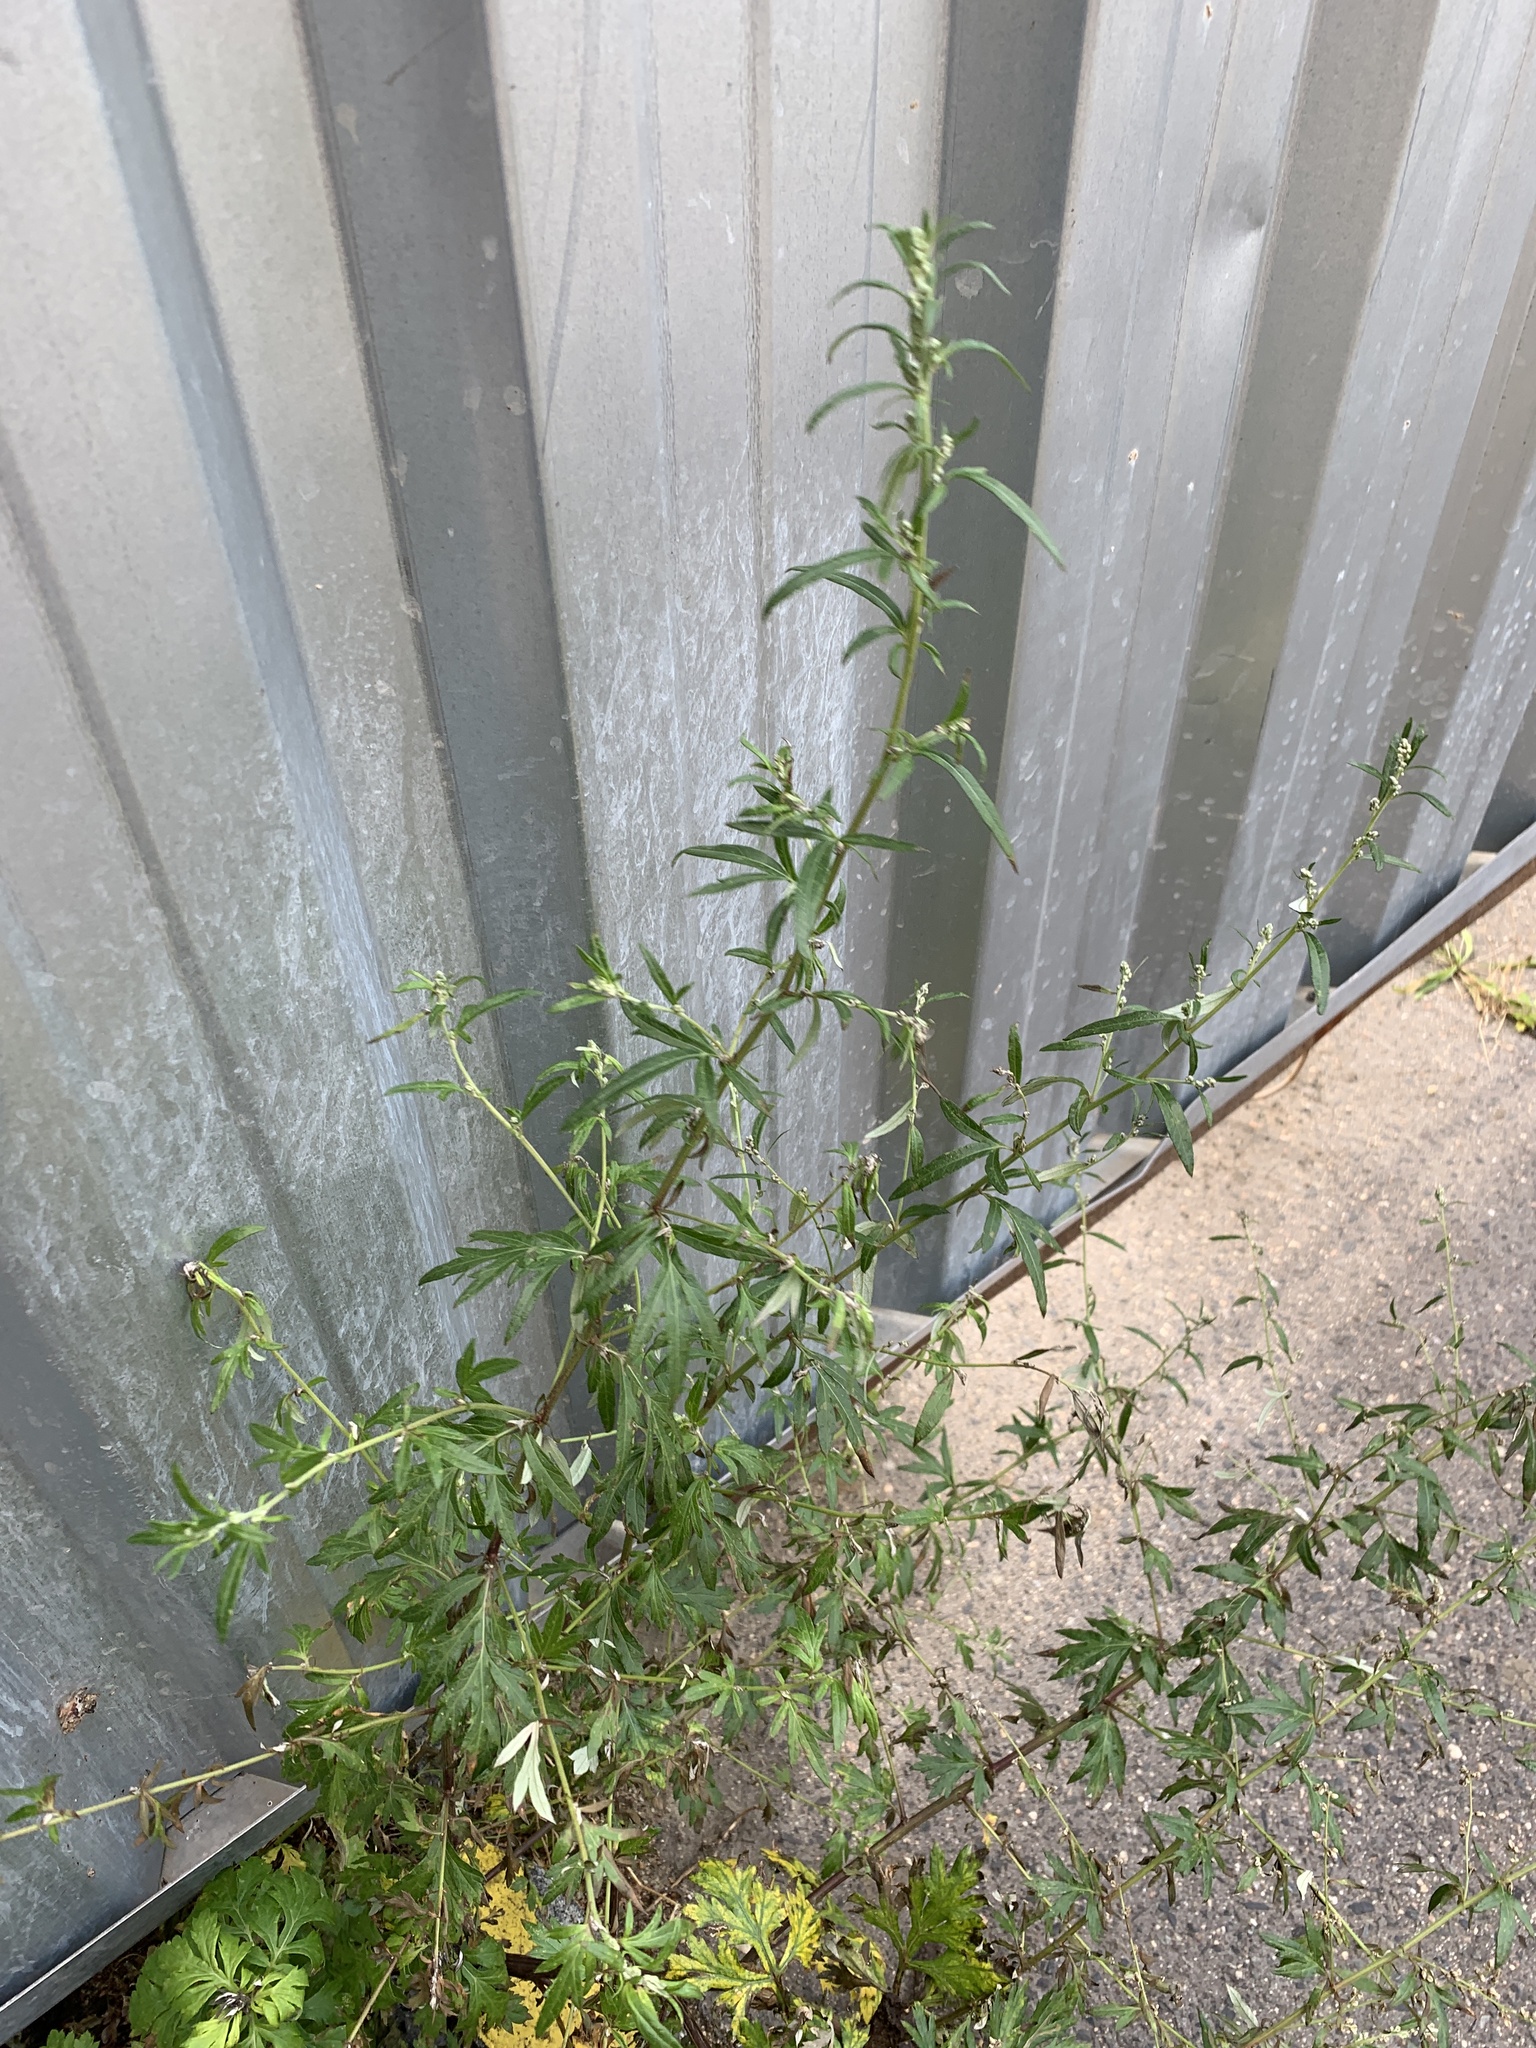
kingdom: Plantae
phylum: Tracheophyta
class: Magnoliopsida
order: Asterales
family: Asteraceae
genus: Artemisia
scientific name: Artemisia vulgaris
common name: Mugwort
